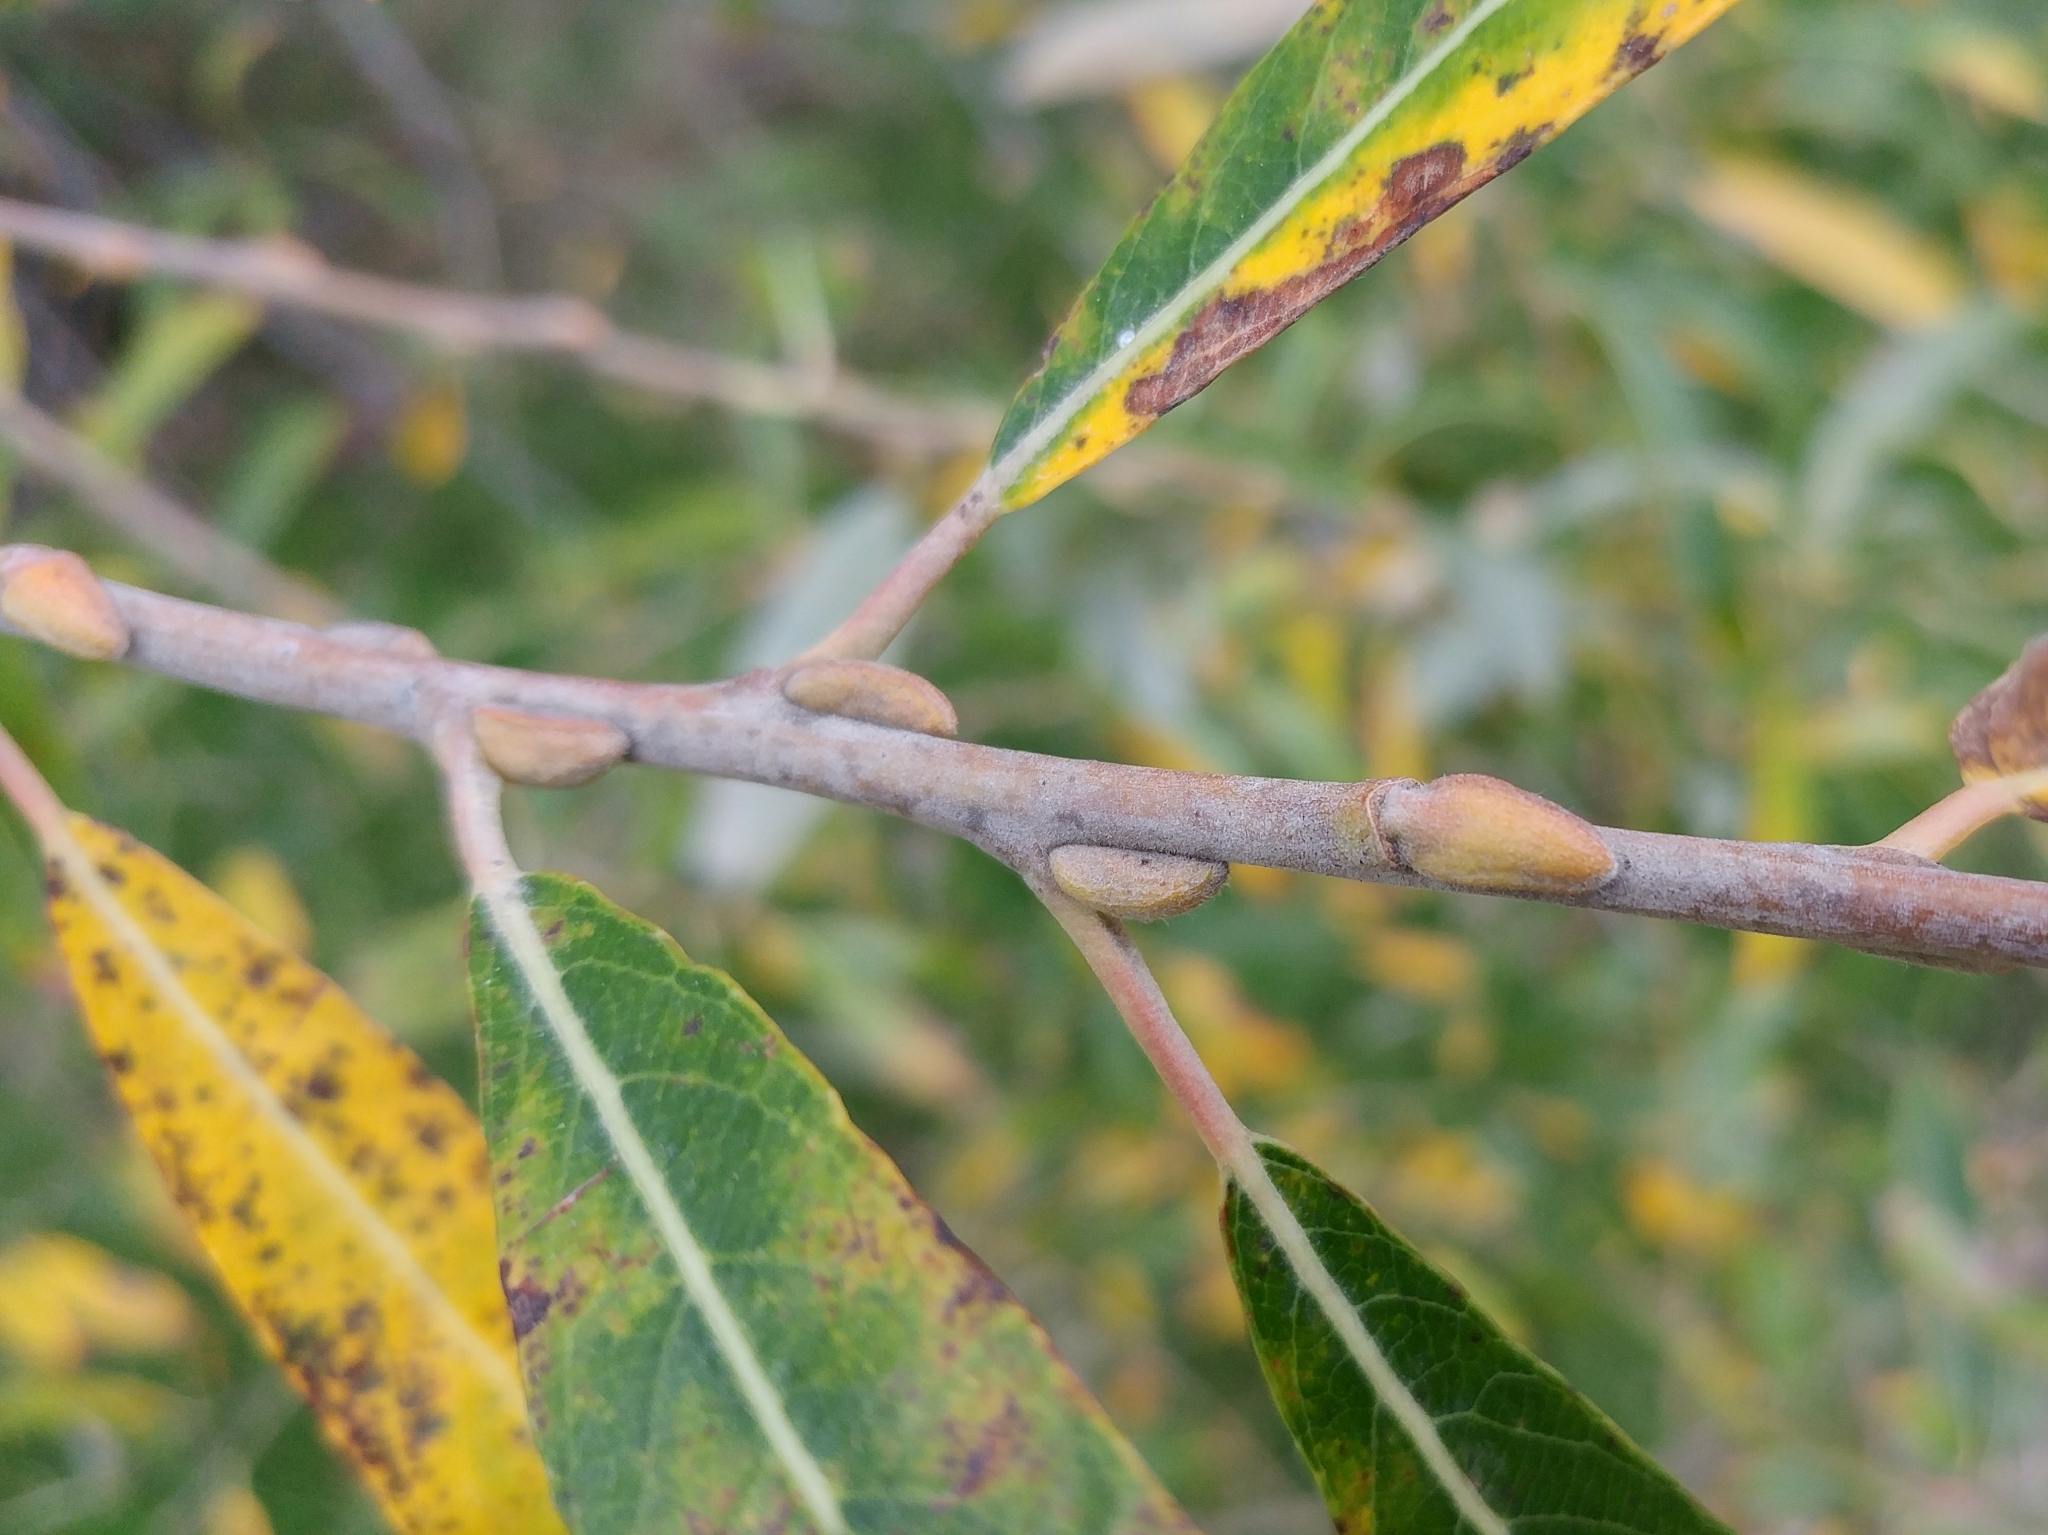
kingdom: Plantae
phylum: Tracheophyta
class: Magnoliopsida
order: Malpighiales
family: Salicaceae
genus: Salix
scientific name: Salix lasiolepis
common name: Arroyo willow
